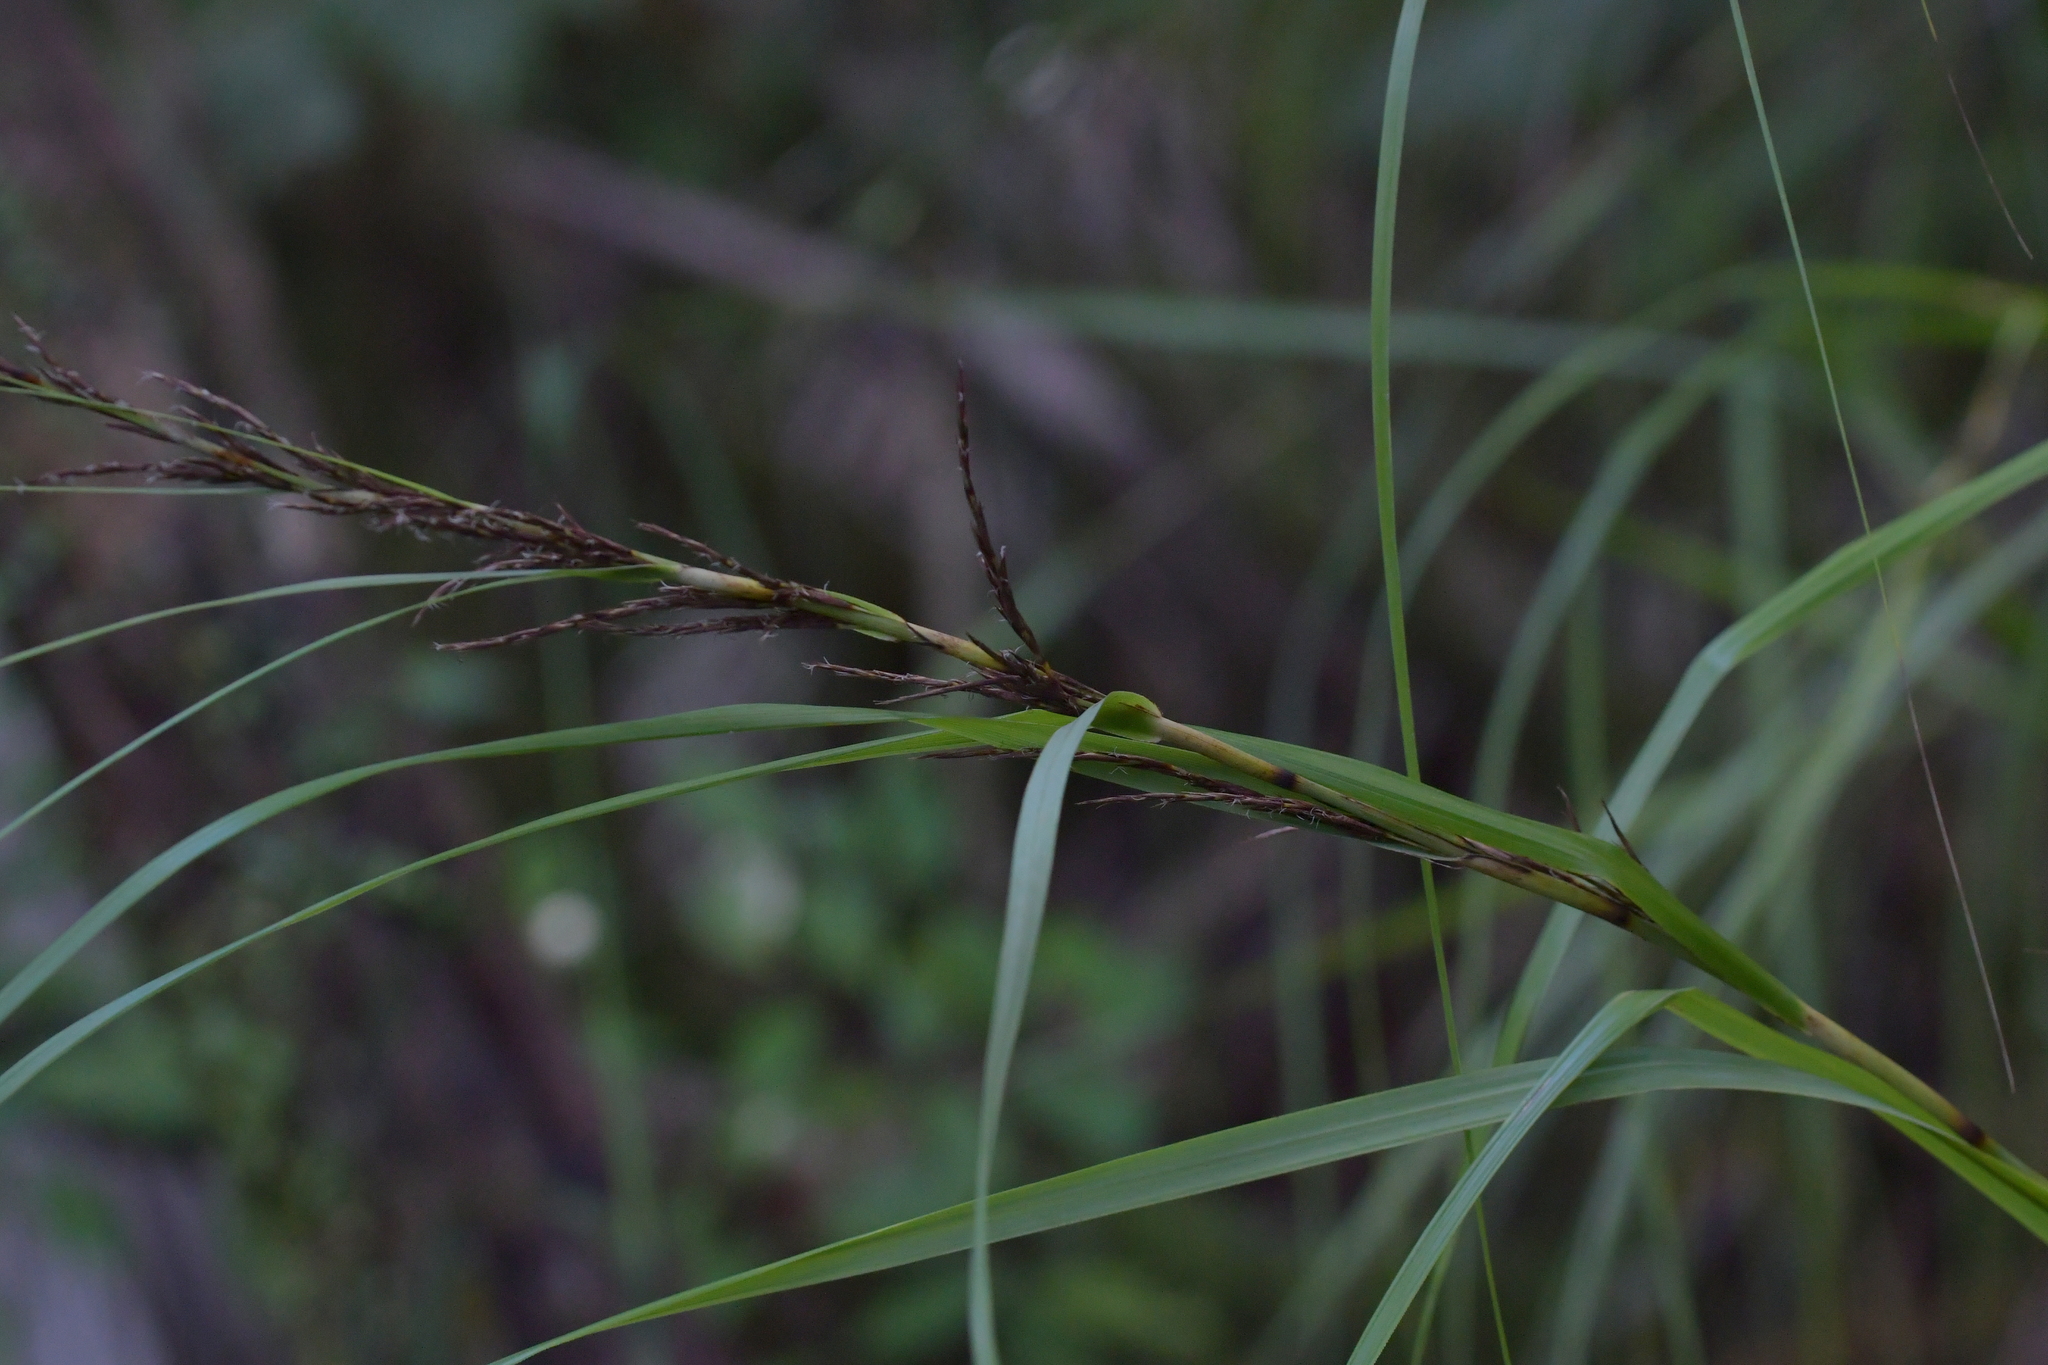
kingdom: Plantae
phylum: Tracheophyta
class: Liliopsida
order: Poales
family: Cyperaceae
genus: Gahnia
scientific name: Gahnia lacera
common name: Sawsedge
